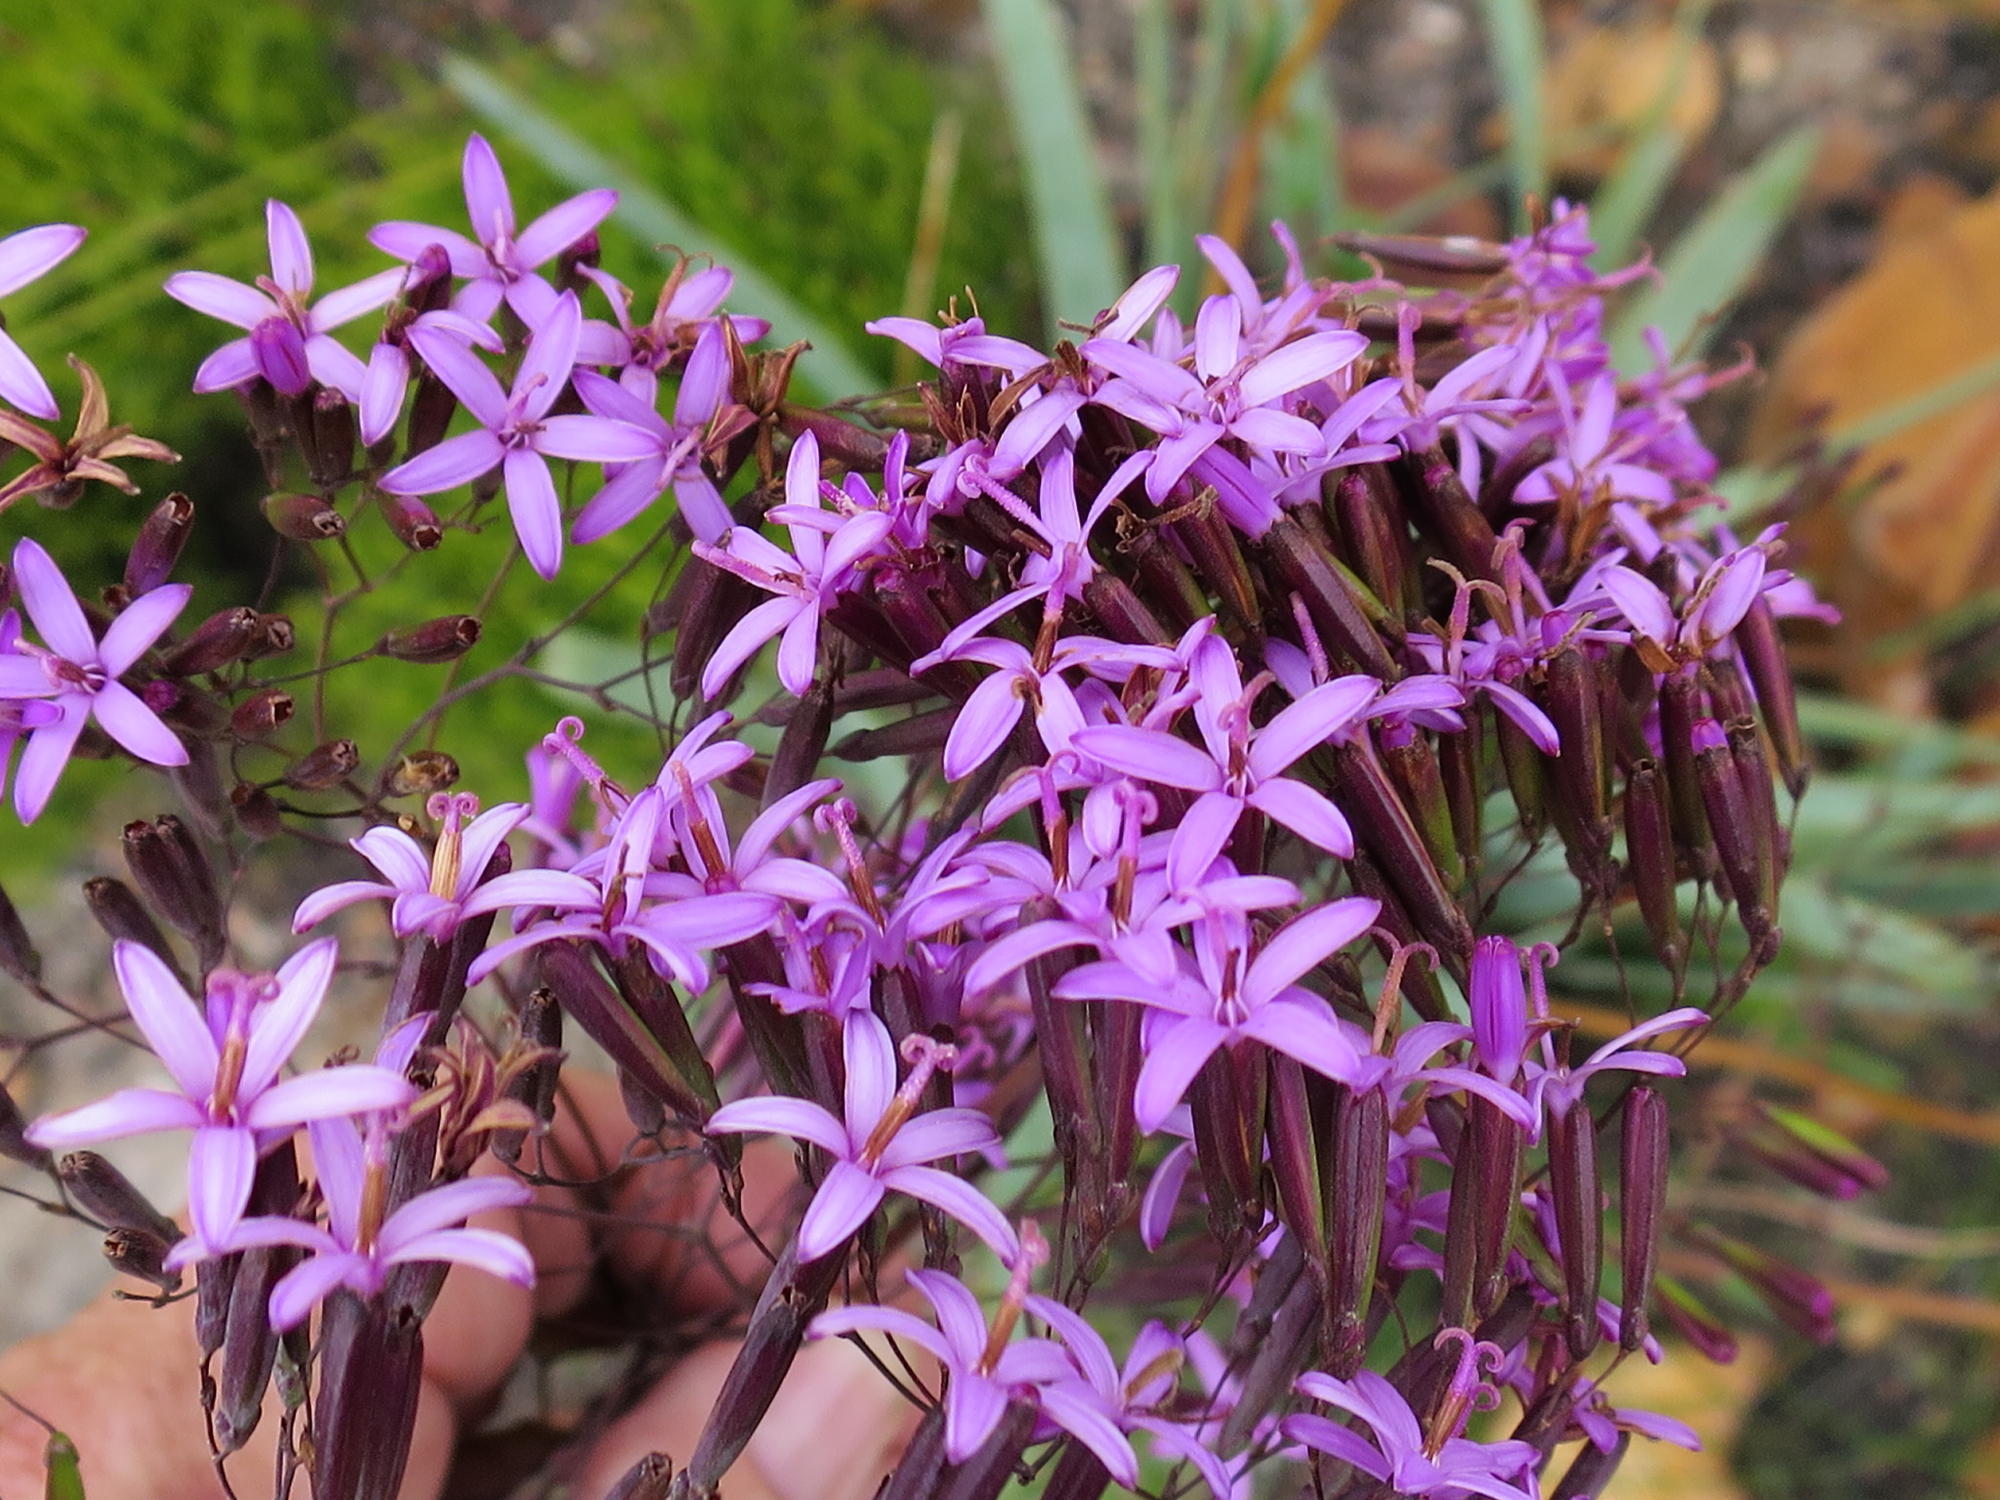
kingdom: Plantae
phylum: Tracheophyta
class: Magnoliopsida
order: Asterales
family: Asteraceae
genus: Corymbium
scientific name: Corymbium glabrum
